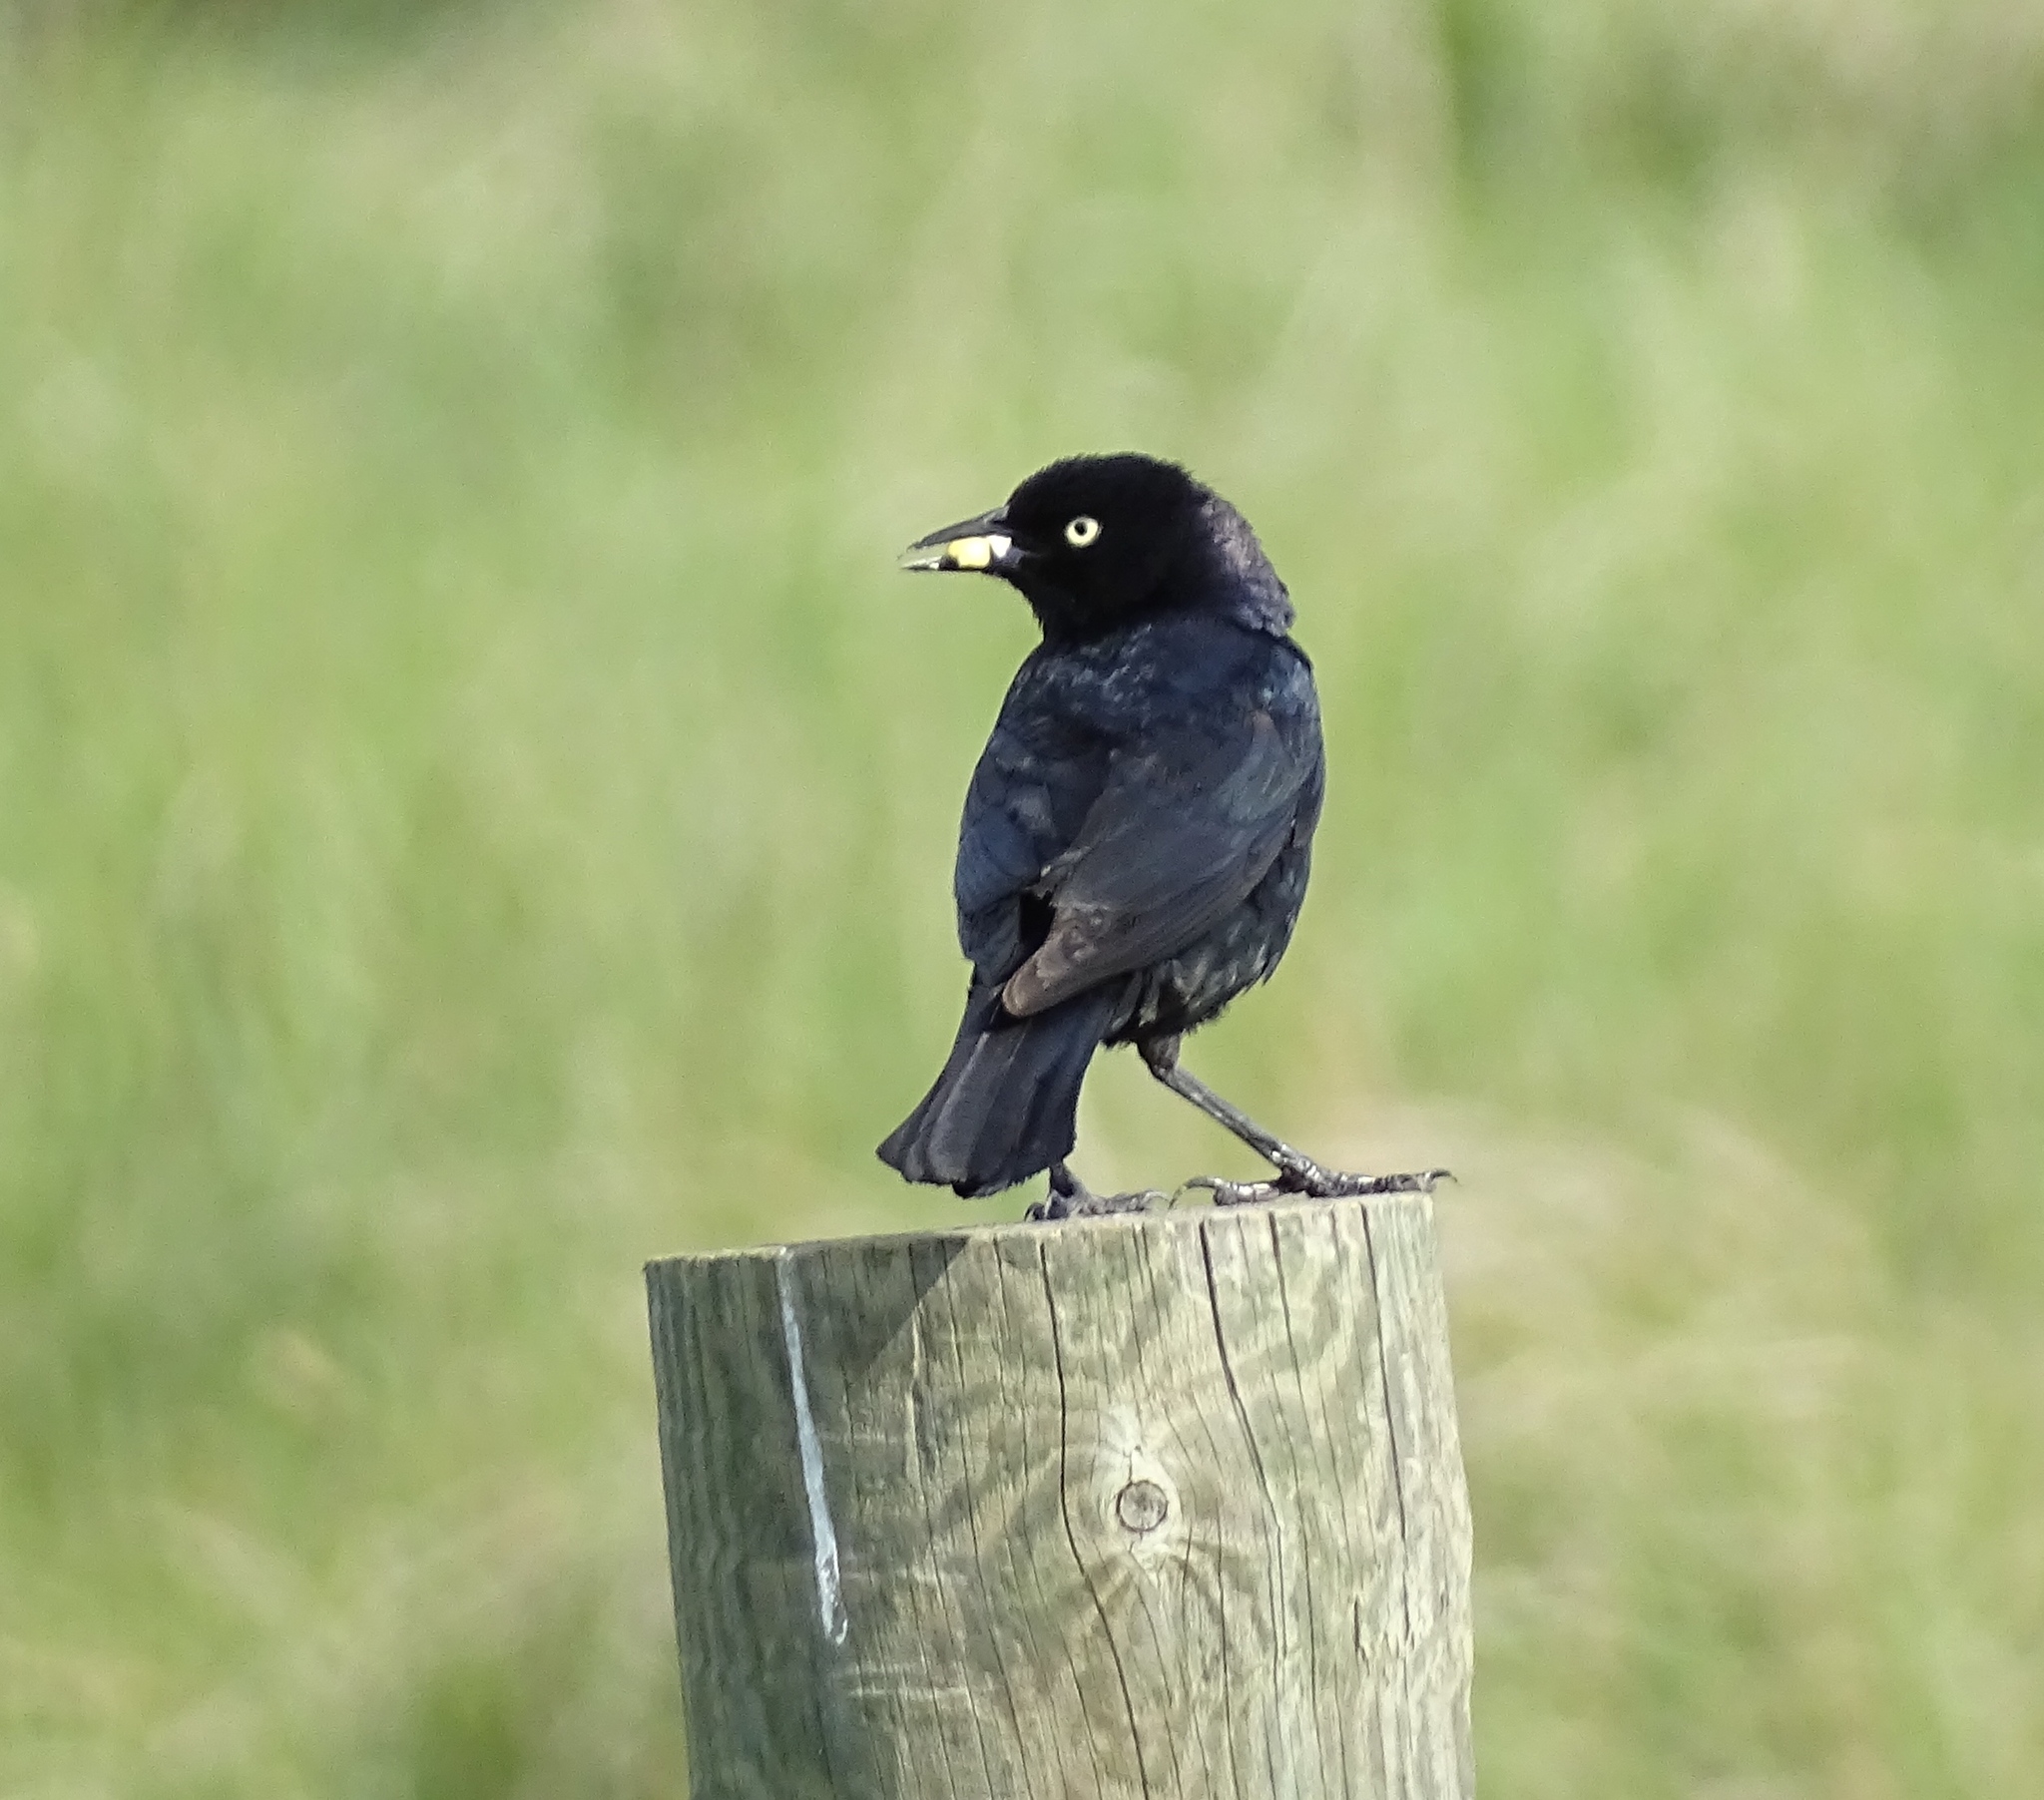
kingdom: Animalia
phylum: Chordata
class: Aves
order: Passeriformes
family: Icteridae
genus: Euphagus
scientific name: Euphagus cyanocephalus
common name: Brewer's blackbird
